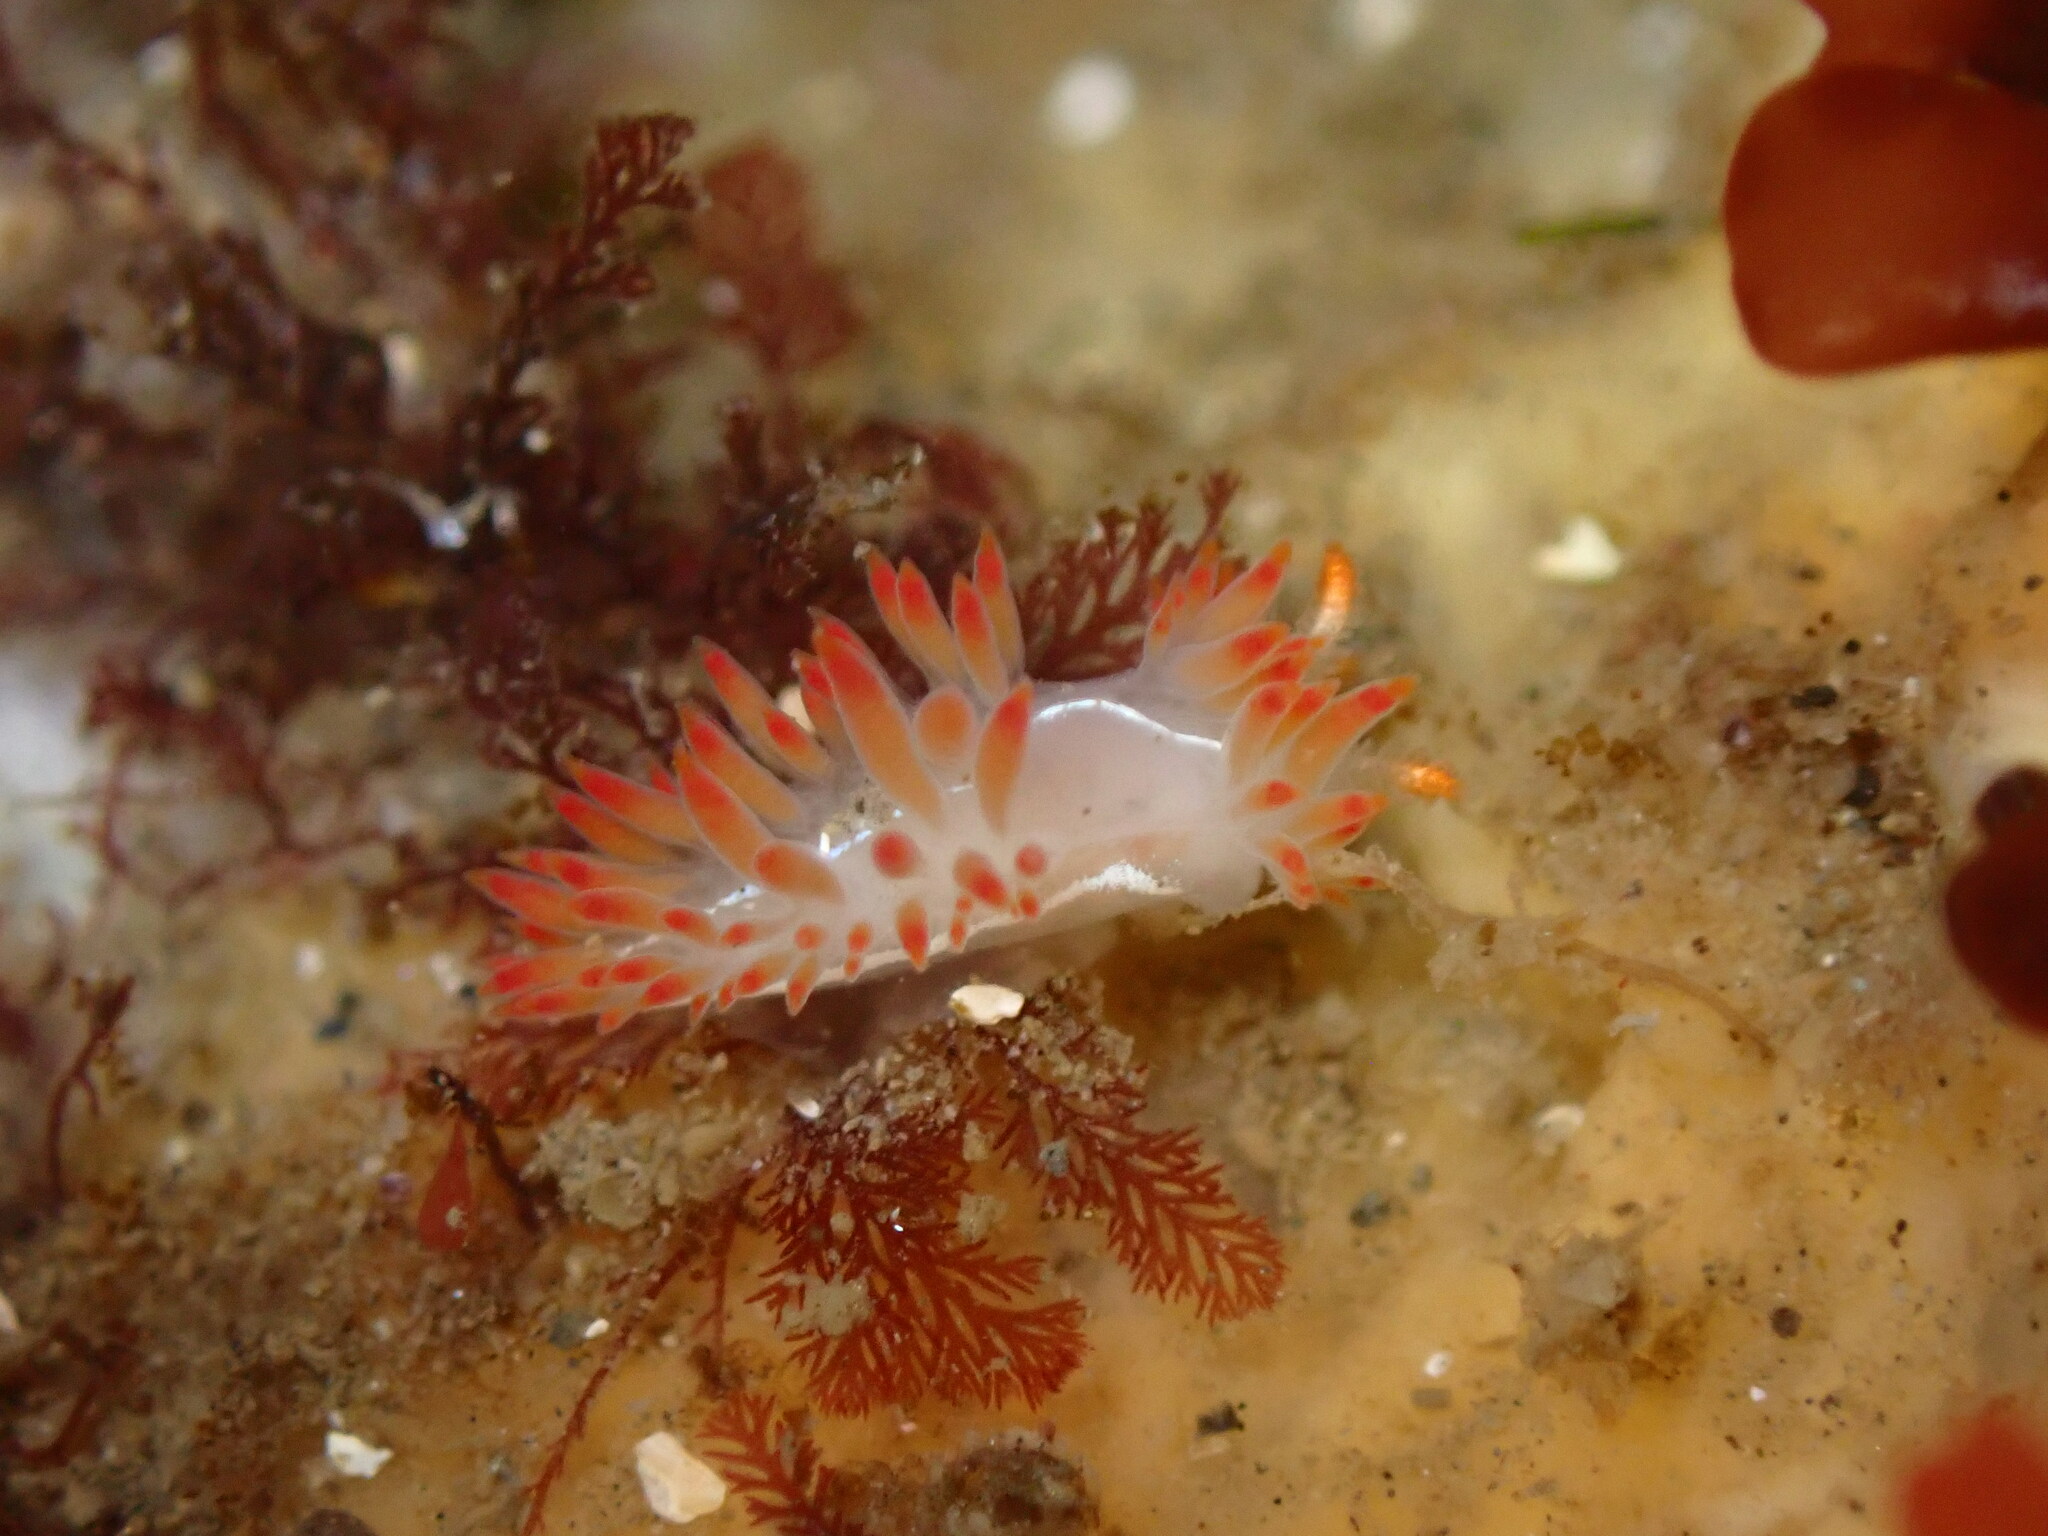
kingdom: Animalia
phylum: Mollusca
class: Gastropoda
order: Nudibranchia
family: Coryphellidae
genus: Coryphella
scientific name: Coryphella trilineata
